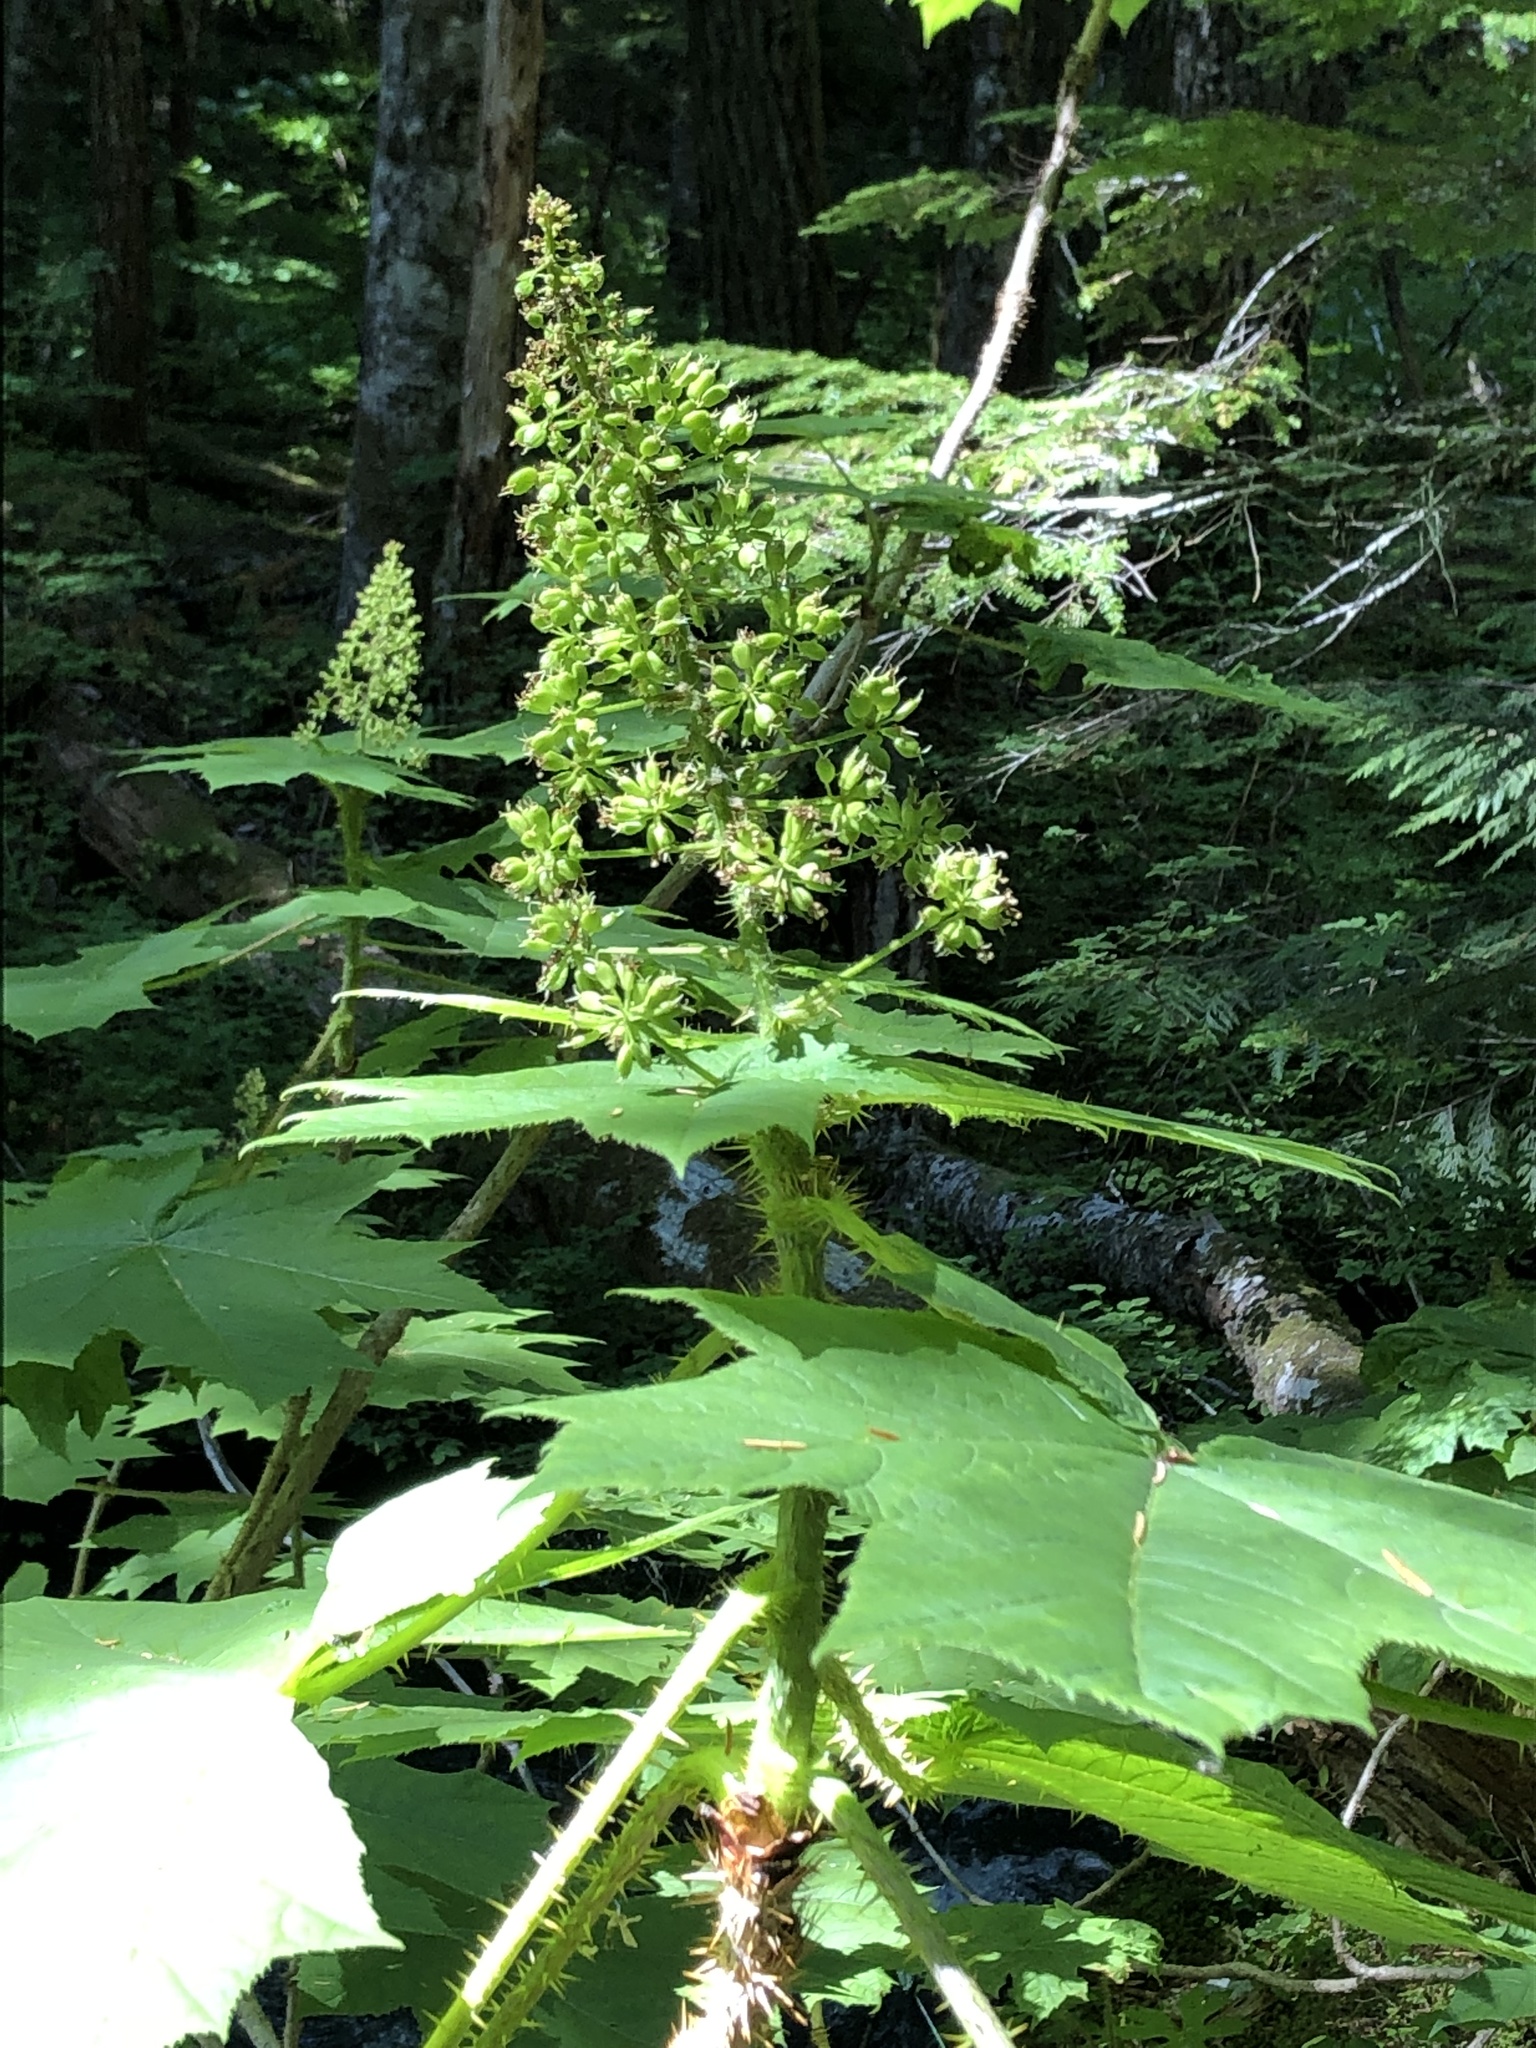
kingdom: Plantae
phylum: Tracheophyta
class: Magnoliopsida
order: Apiales
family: Araliaceae
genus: Oplopanax
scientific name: Oplopanax horridus
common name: Devil's walking-stick
